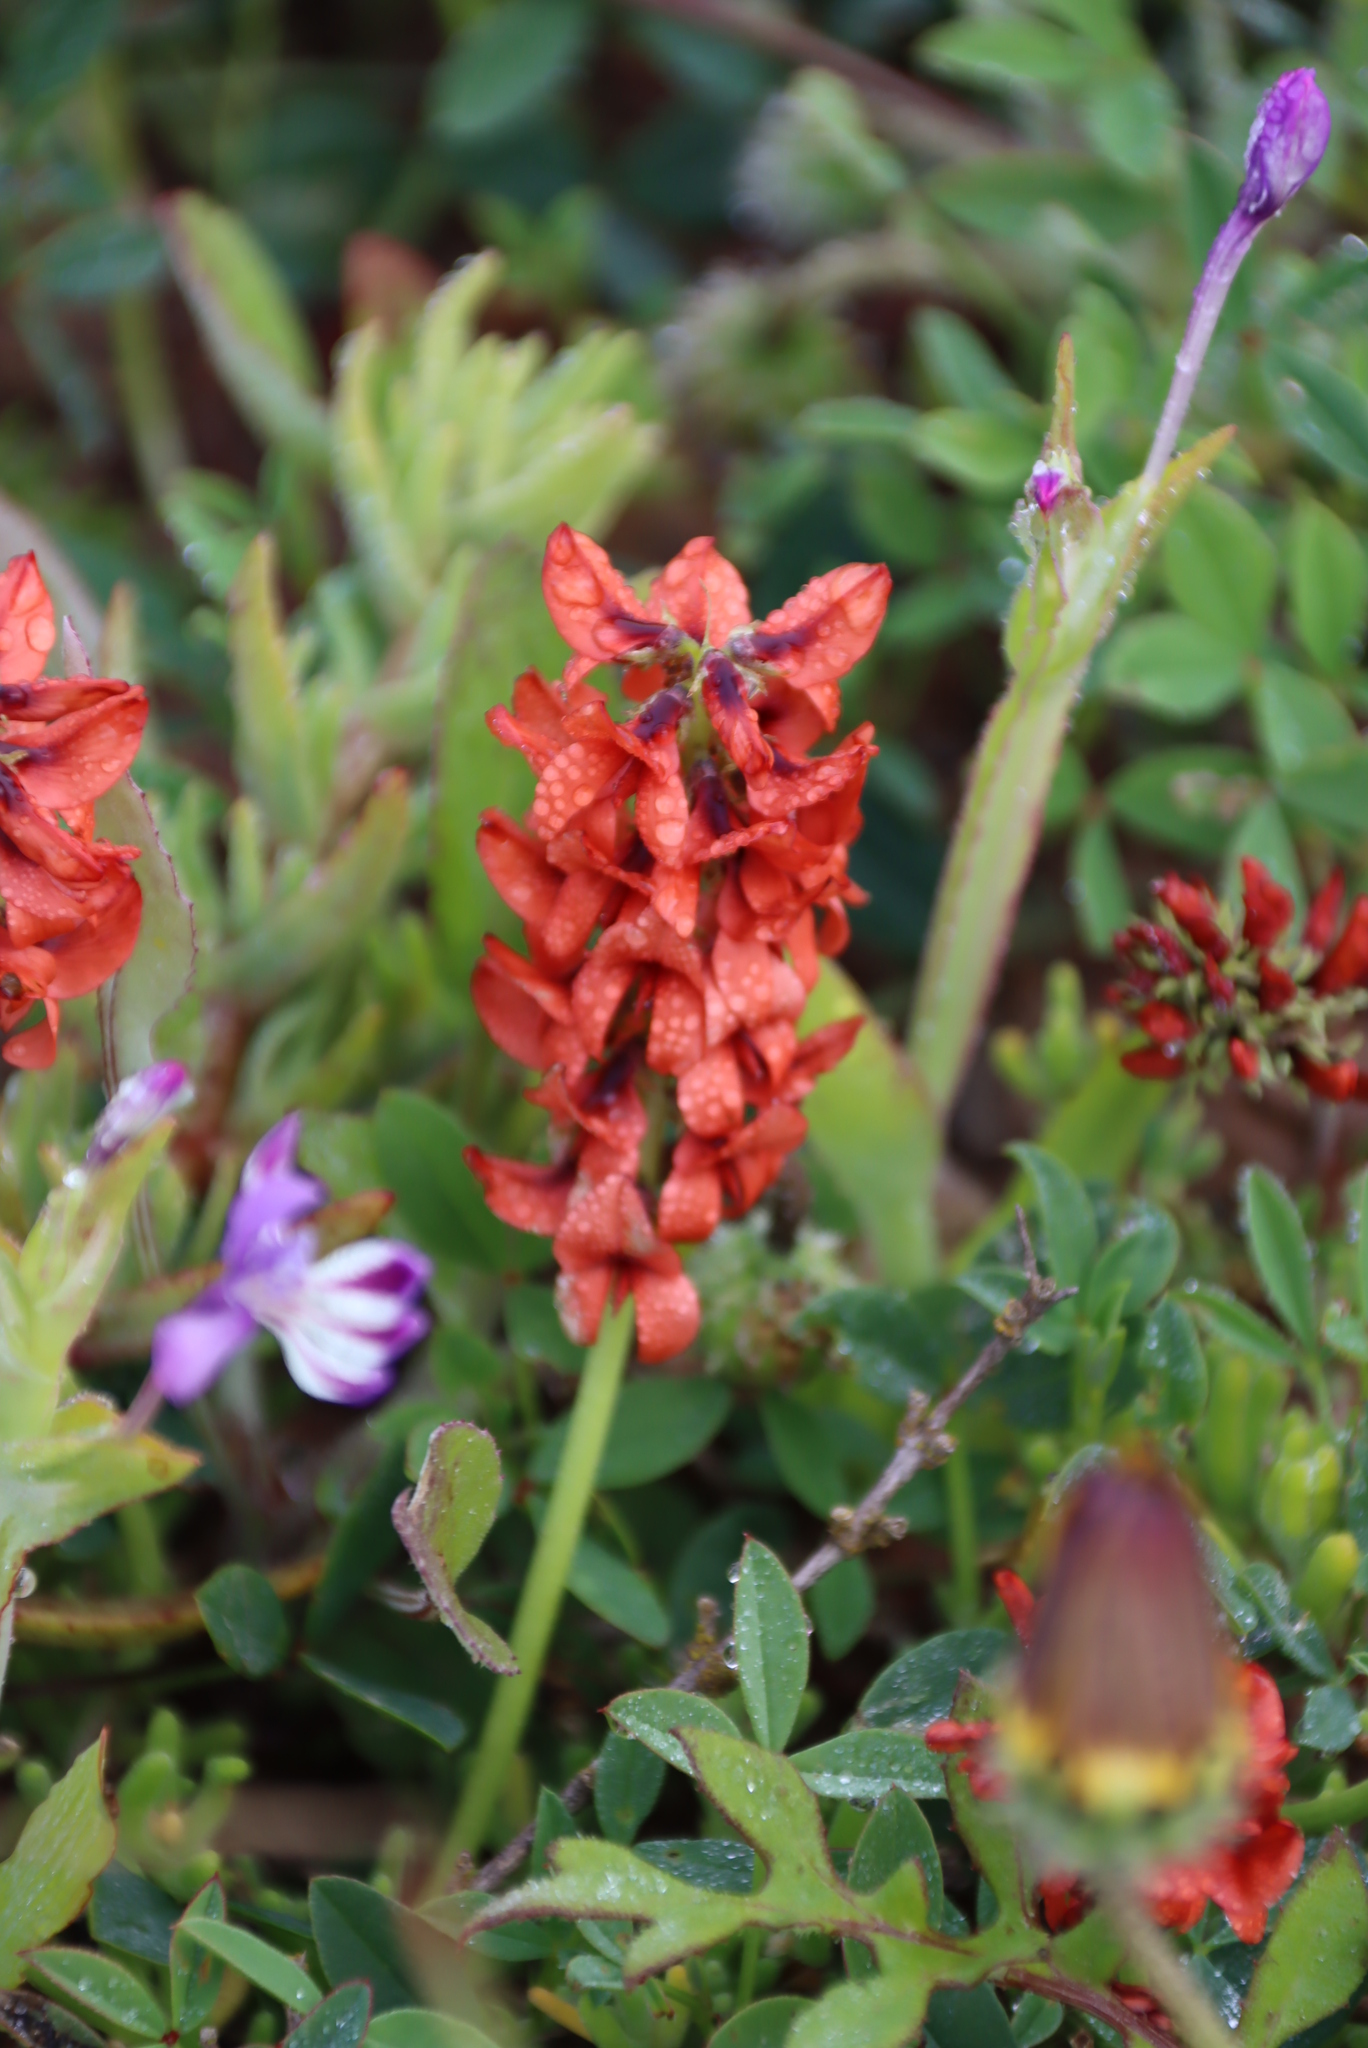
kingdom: Plantae
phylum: Tracheophyta
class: Magnoliopsida
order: Fabales
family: Fabaceae
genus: Indigofera
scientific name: Indigofera
